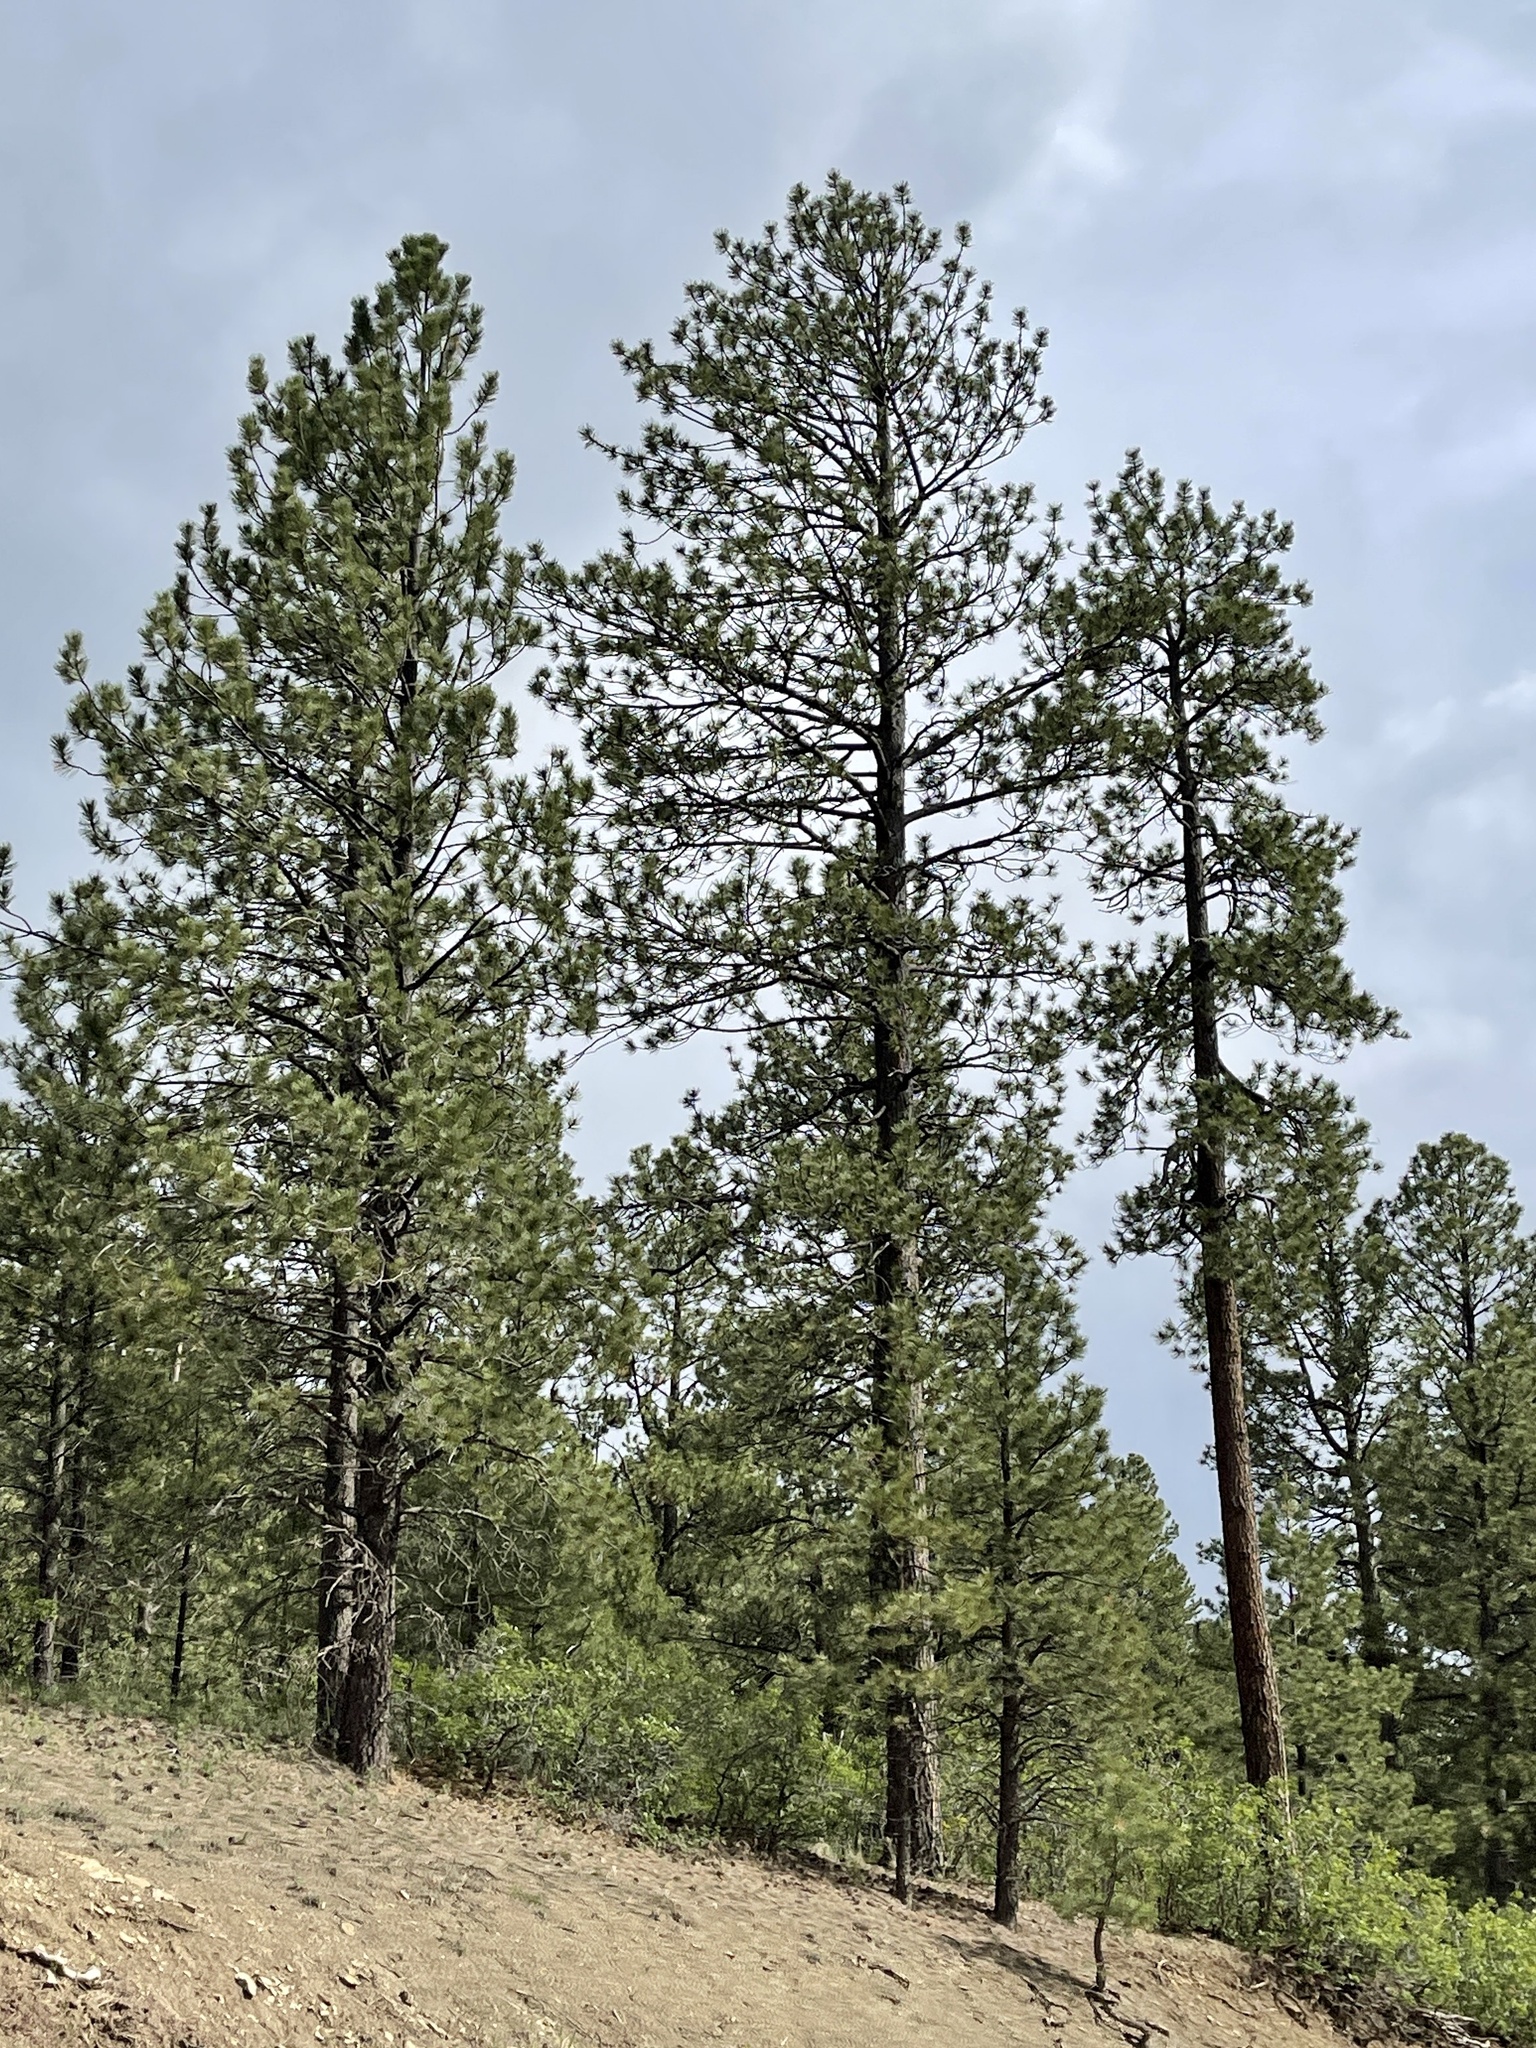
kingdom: Plantae
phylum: Tracheophyta
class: Pinopsida
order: Pinales
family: Pinaceae
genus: Pinus
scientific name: Pinus ponderosa
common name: Western yellow-pine
